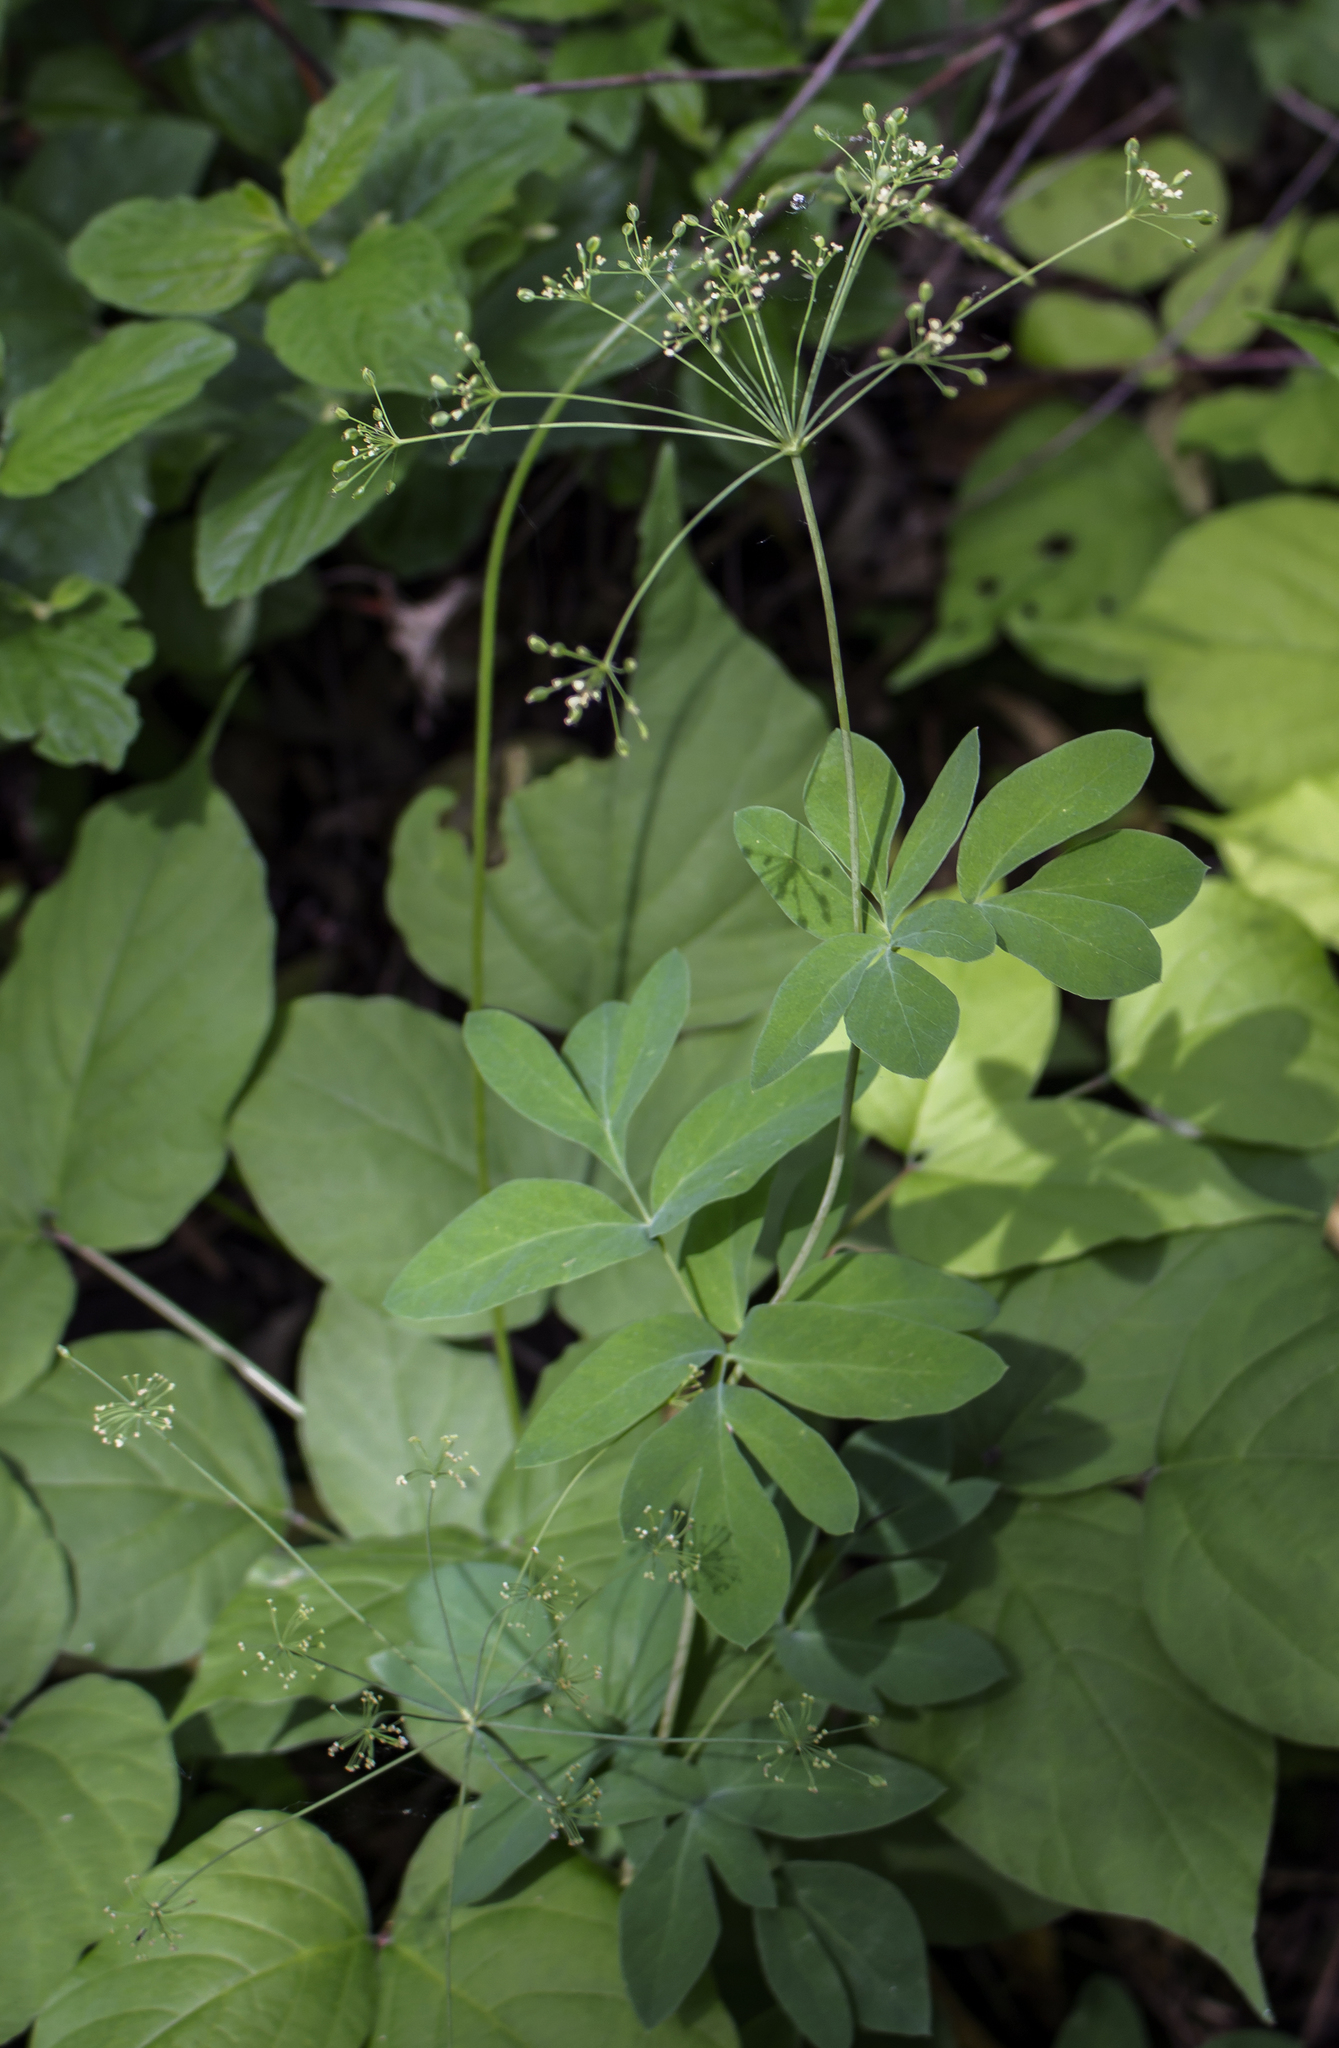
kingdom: Plantae
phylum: Tracheophyta
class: Magnoliopsida
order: Apiales
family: Apiaceae
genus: Taenidia
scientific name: Taenidia integerrima
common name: Golden alexander
